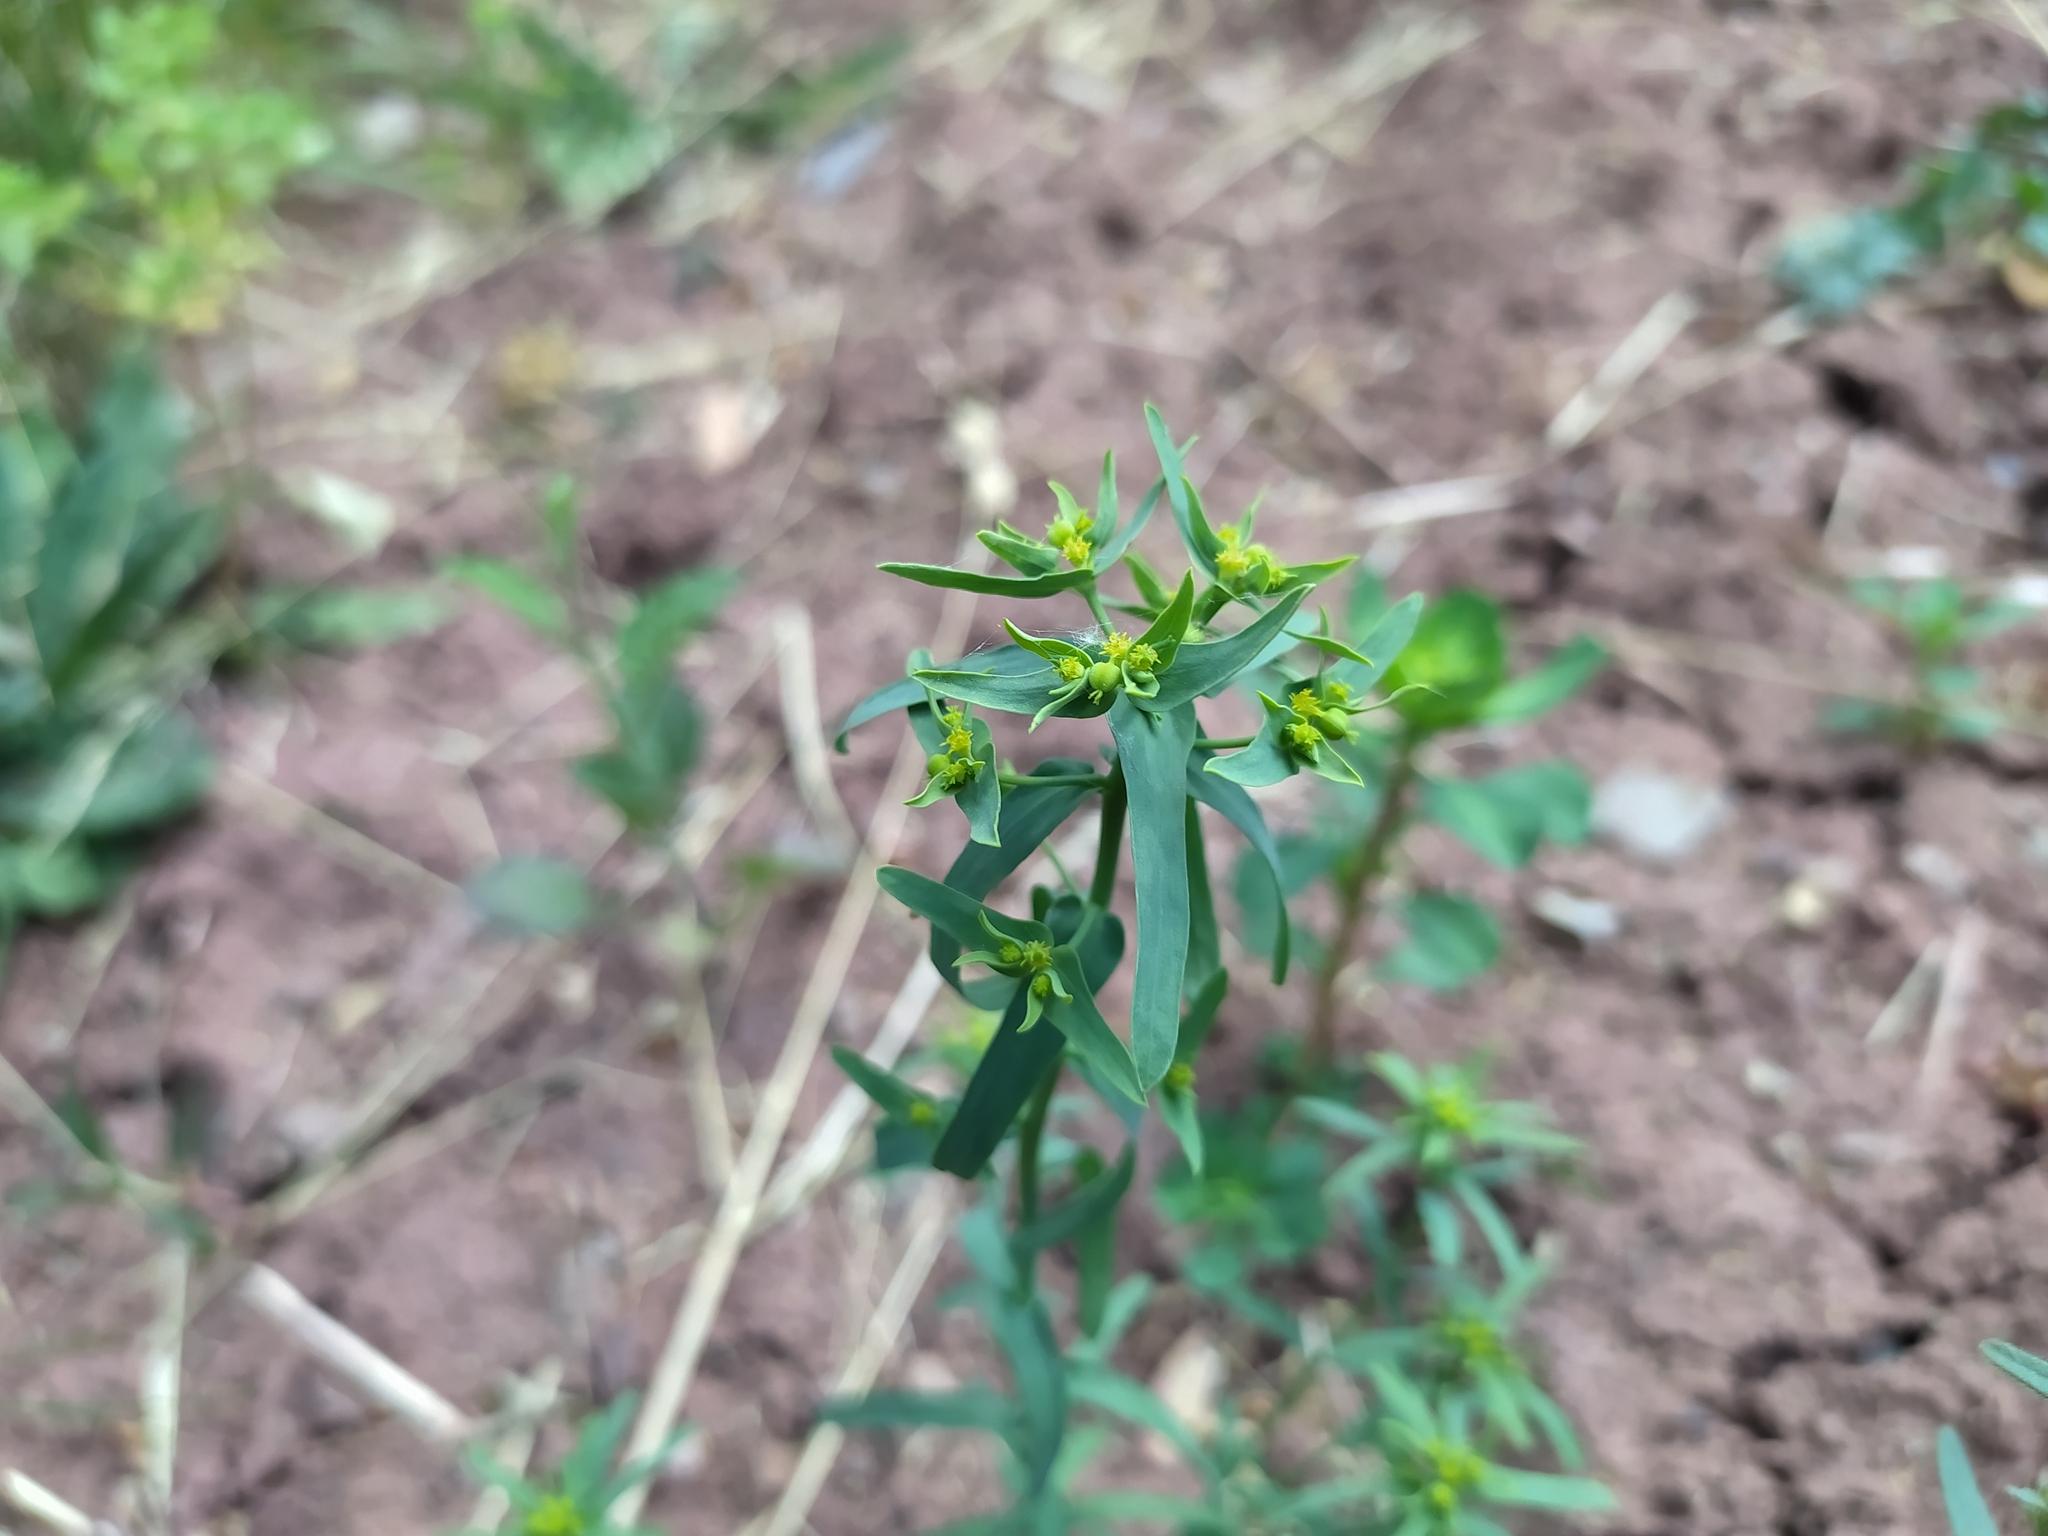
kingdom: Plantae
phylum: Tracheophyta
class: Magnoliopsida
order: Malpighiales
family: Euphorbiaceae
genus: Euphorbia
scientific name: Euphorbia exigua
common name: Dwarf spurge
